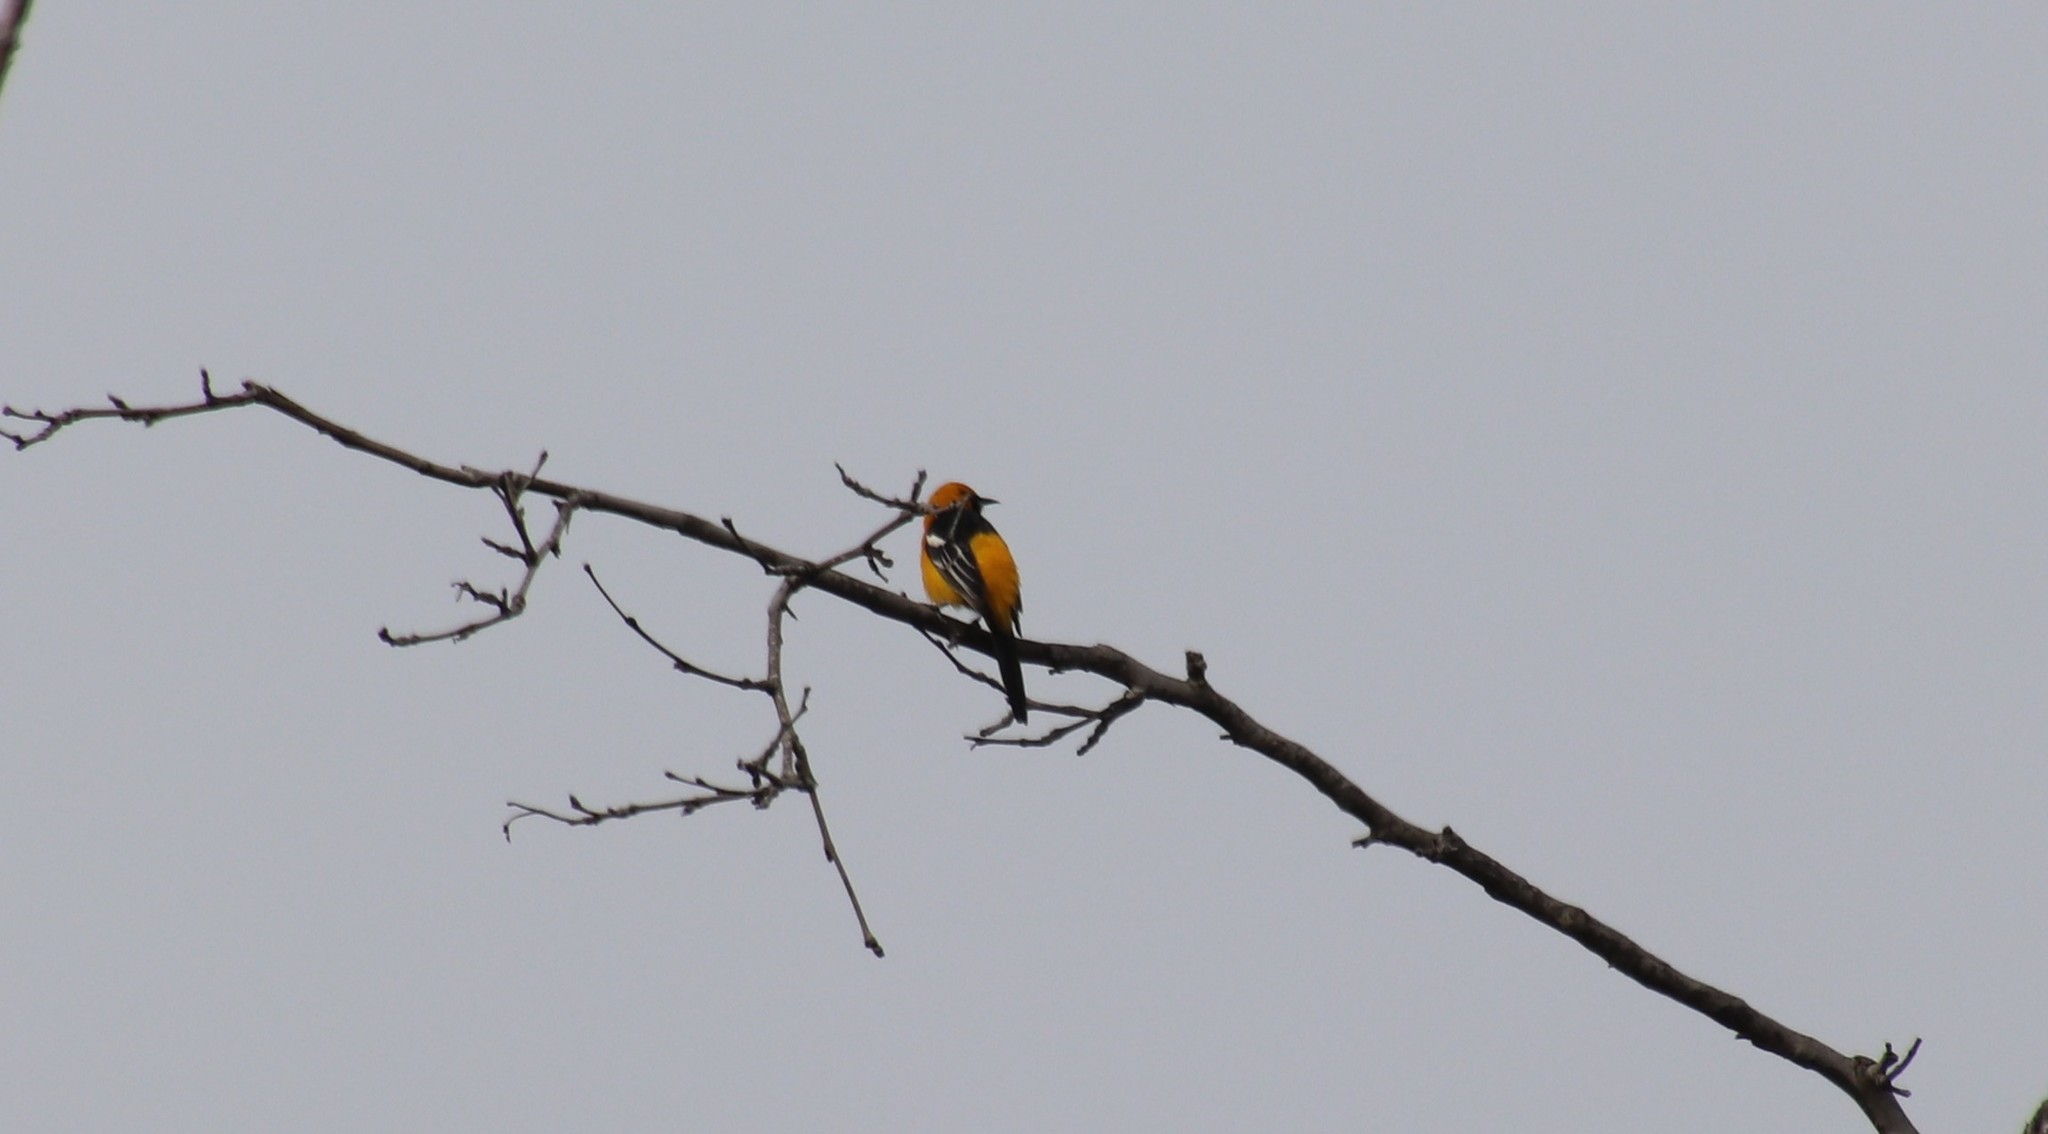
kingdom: Animalia
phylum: Chordata
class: Aves
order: Passeriformes
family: Icteridae
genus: Icterus
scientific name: Icterus cucullatus
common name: Hooded oriole
